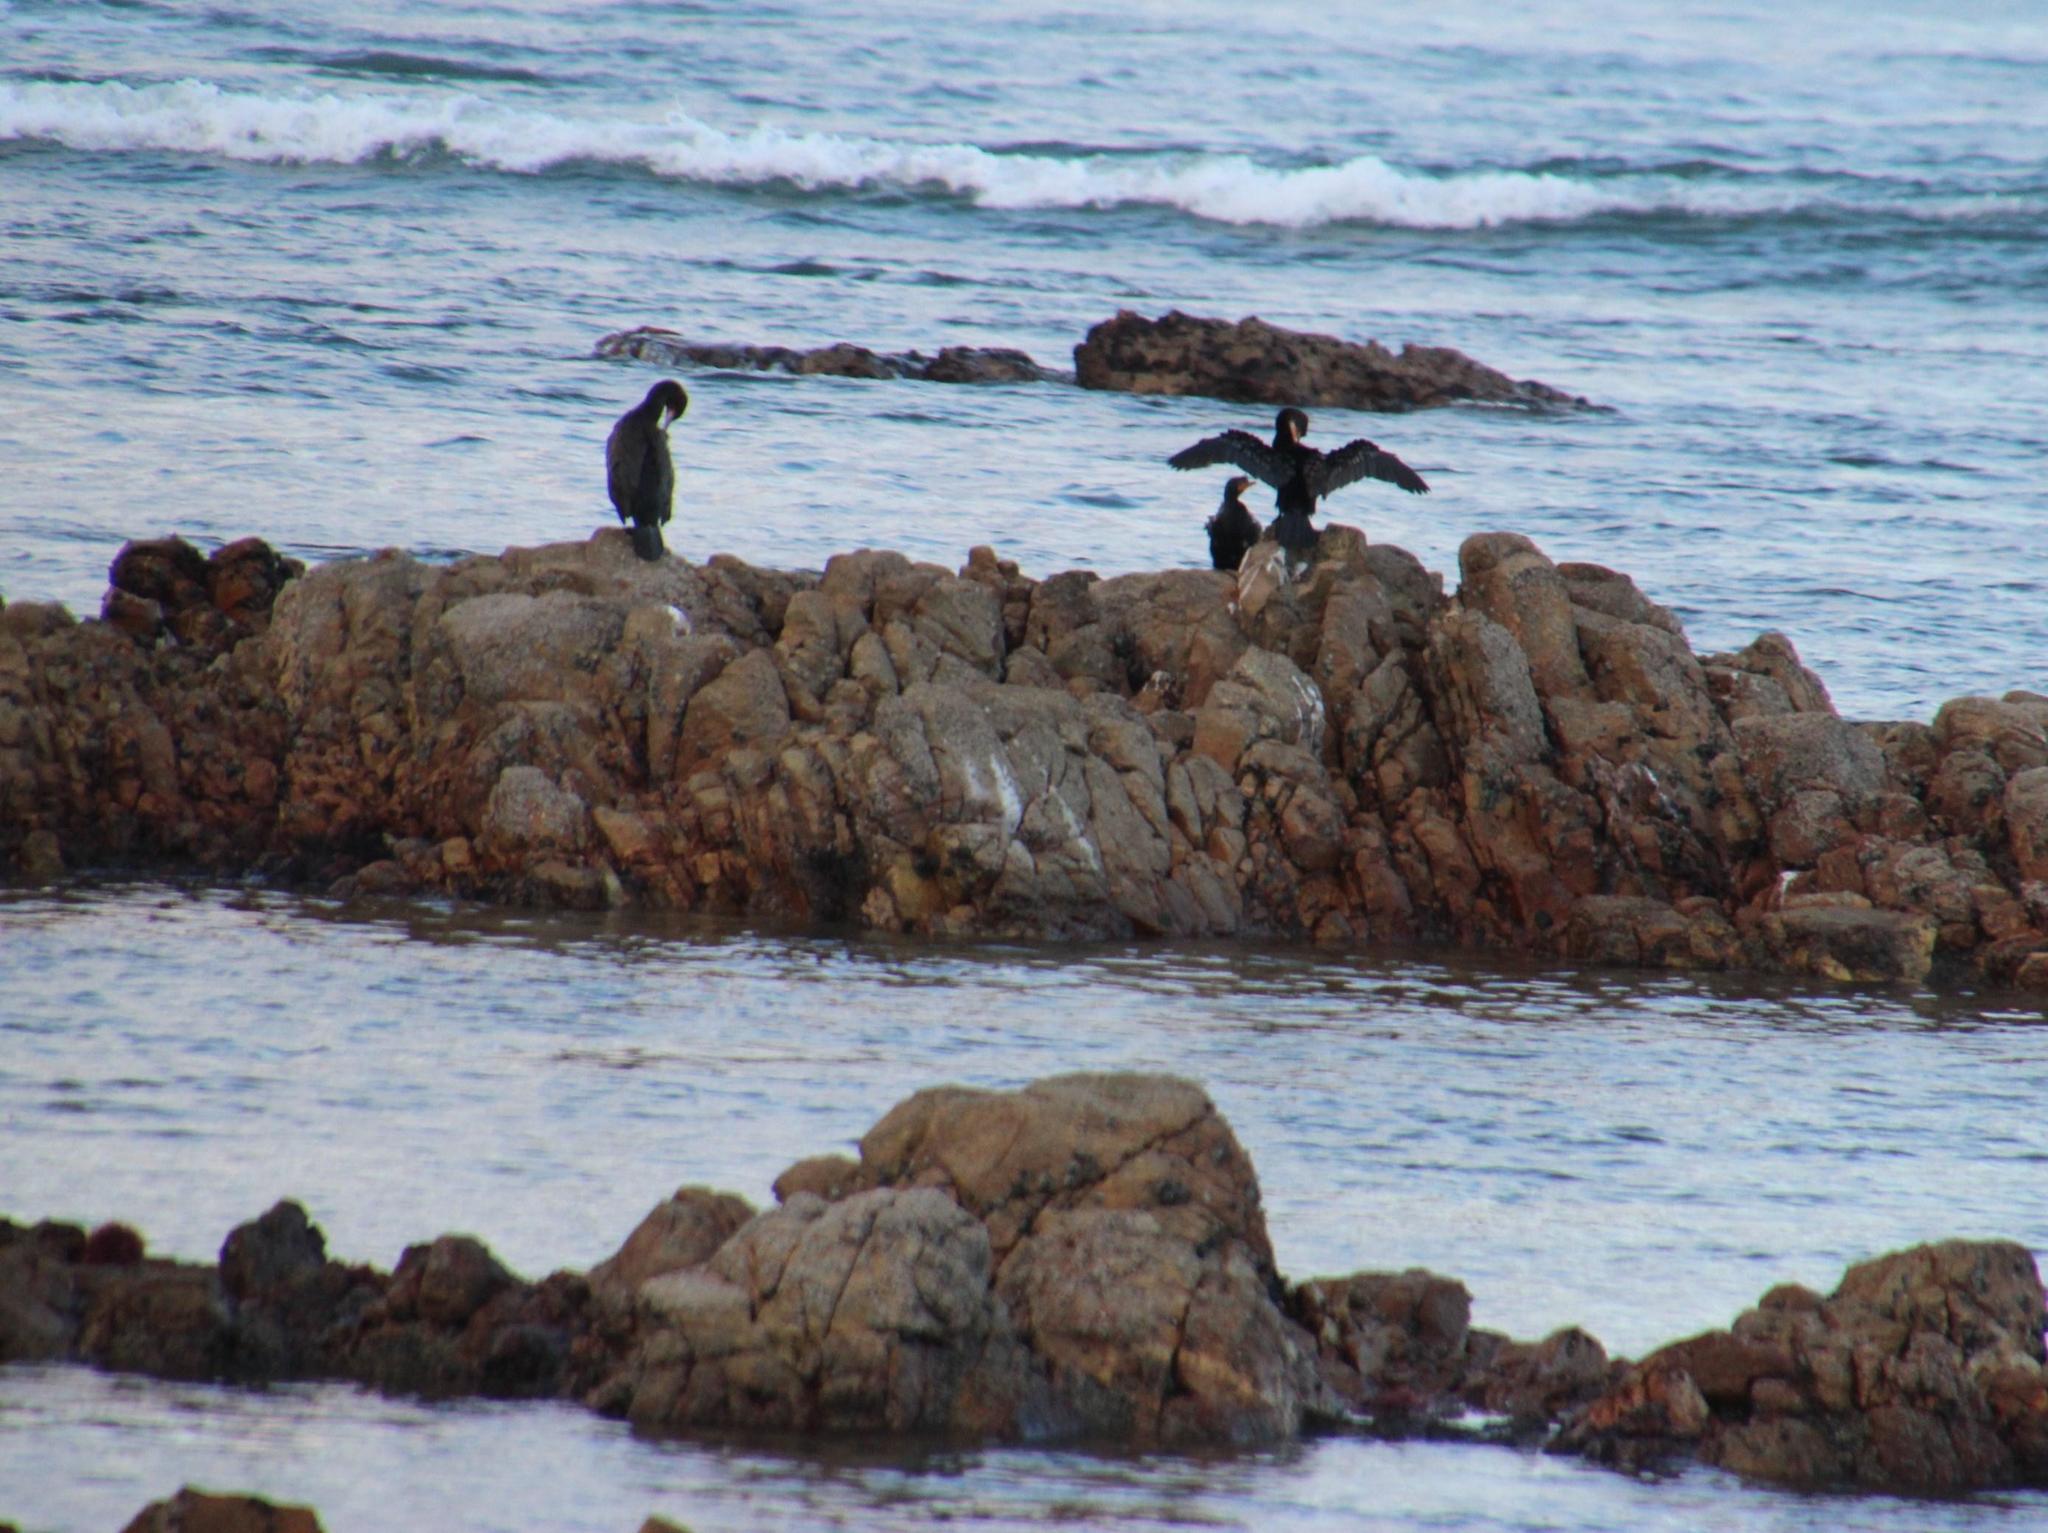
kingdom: Animalia
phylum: Chordata
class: Aves
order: Suliformes
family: Phalacrocoracidae
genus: Microcarbo
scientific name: Microcarbo africanus
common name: Long-tailed cormorant
